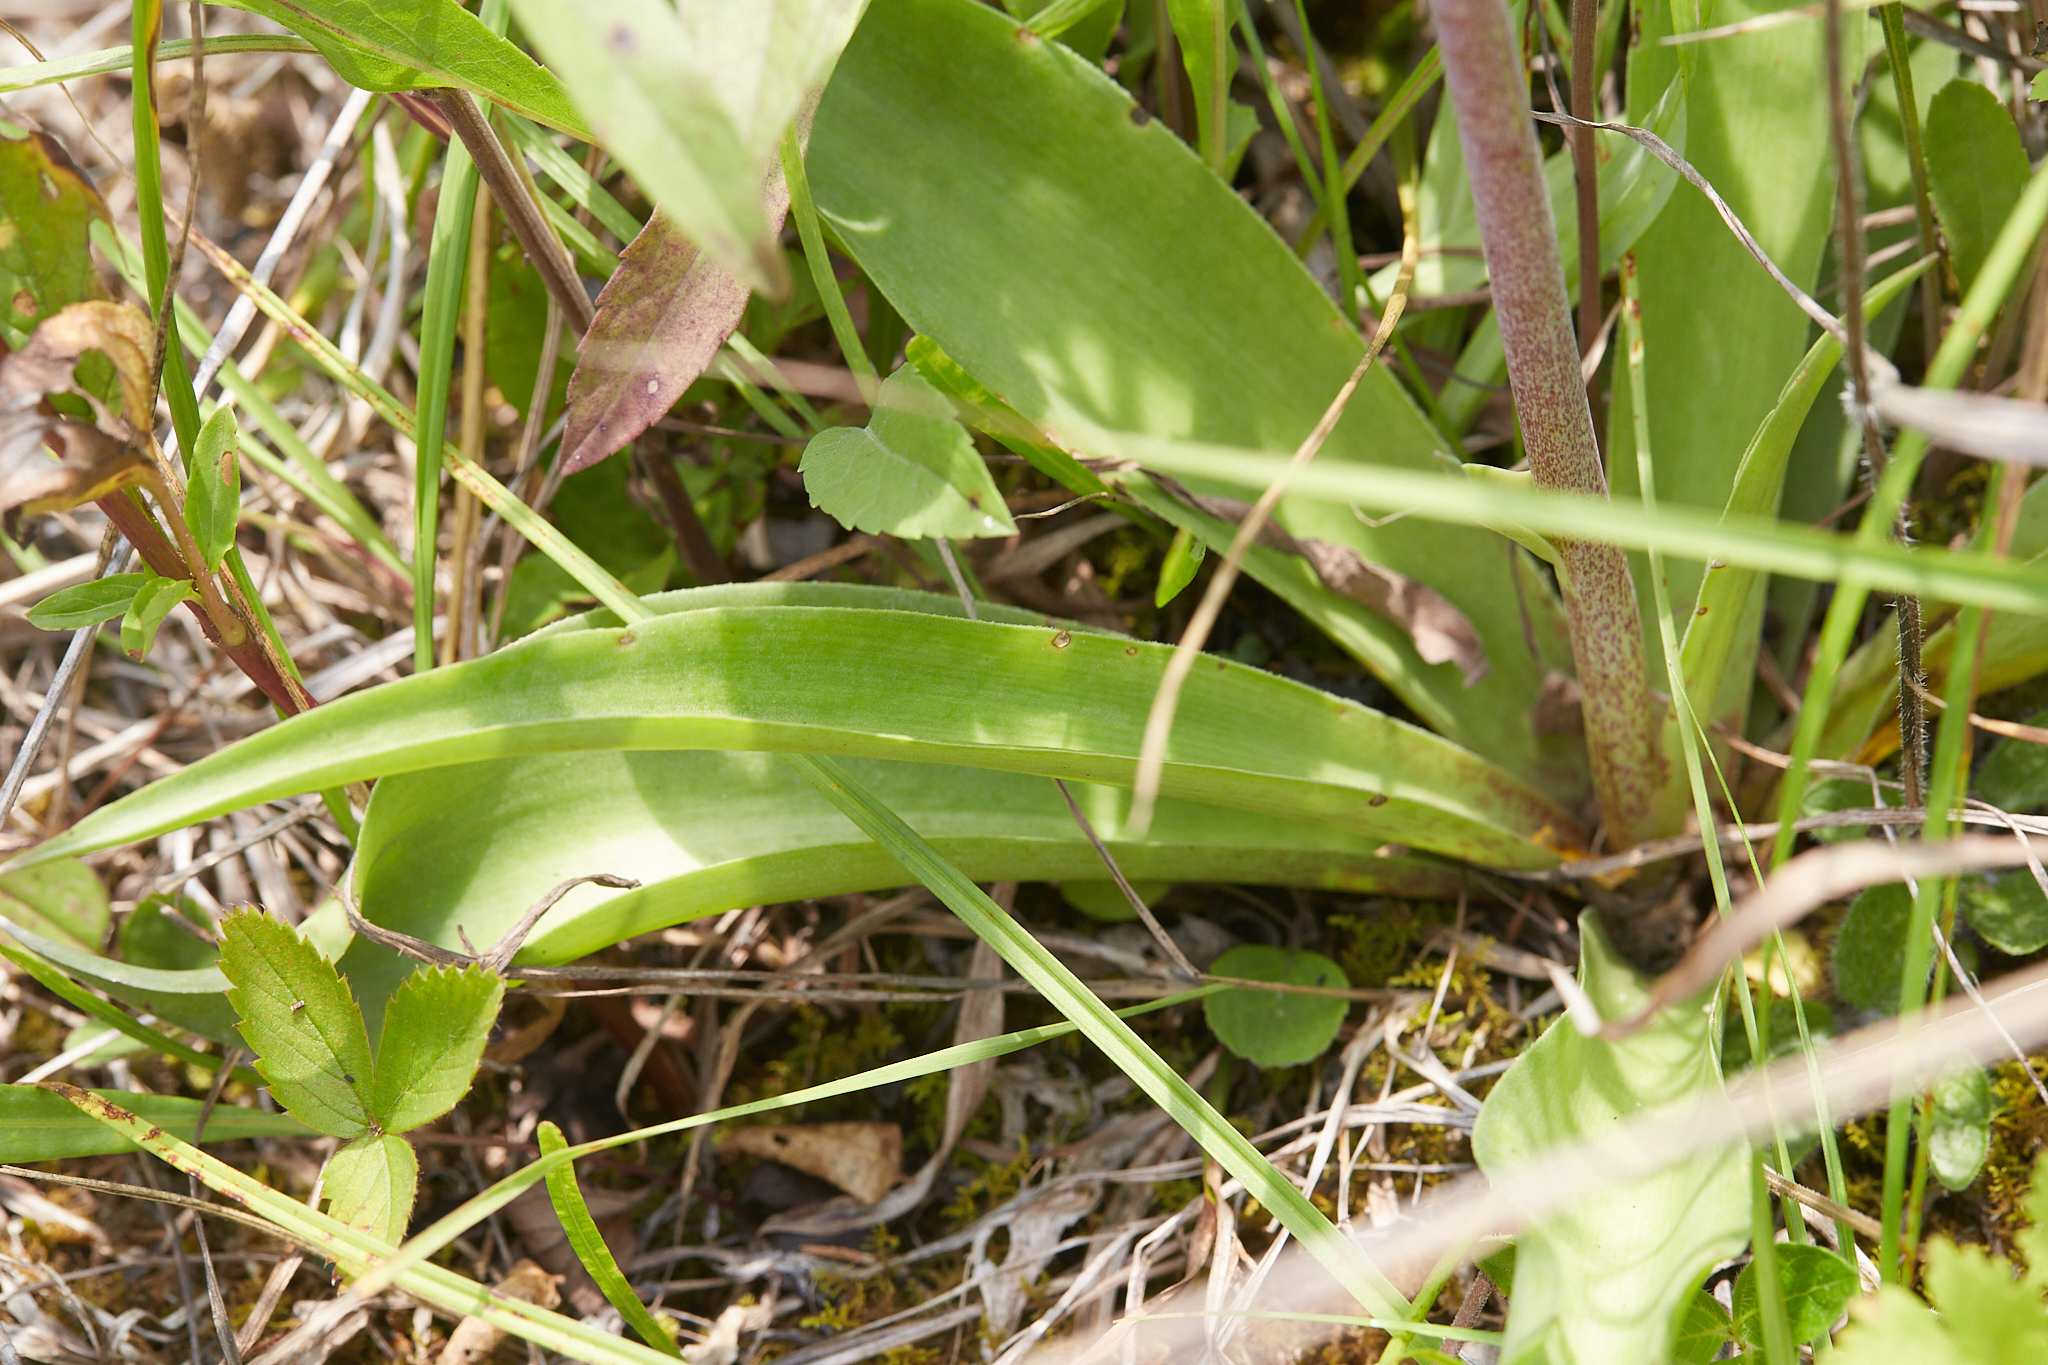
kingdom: Plantae
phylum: Tracheophyta
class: Liliopsida
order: Asparagales
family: Asparagaceae
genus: Agave
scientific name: Agave virginica
